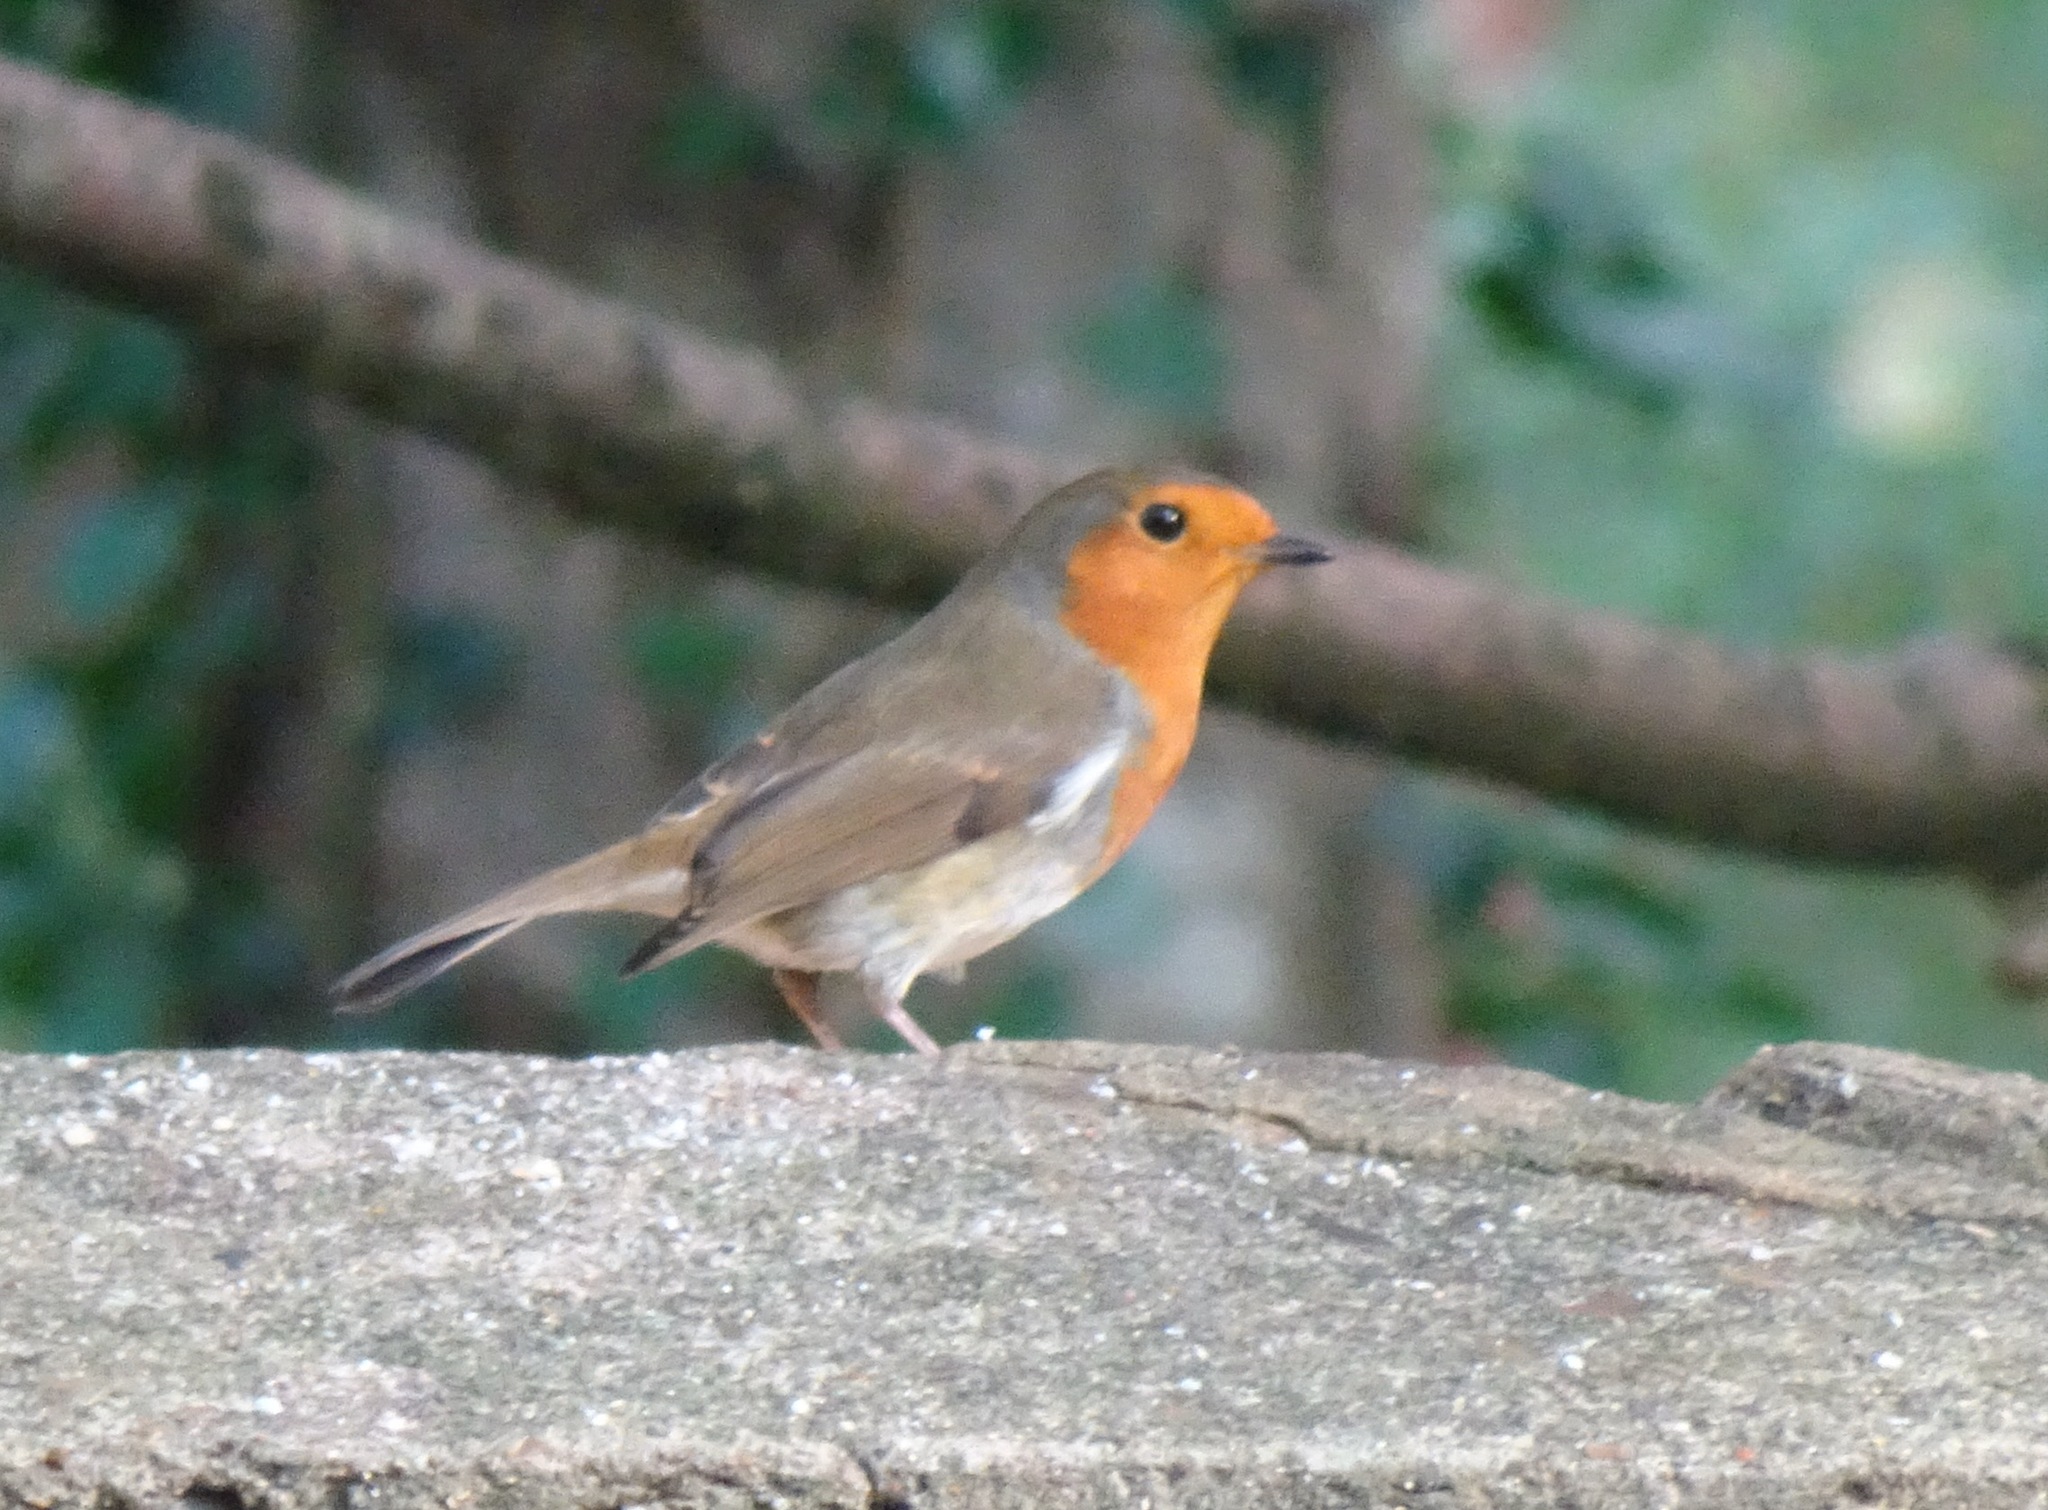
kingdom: Animalia
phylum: Chordata
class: Aves
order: Passeriformes
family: Muscicapidae
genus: Erithacus
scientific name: Erithacus rubecula
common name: European robin
